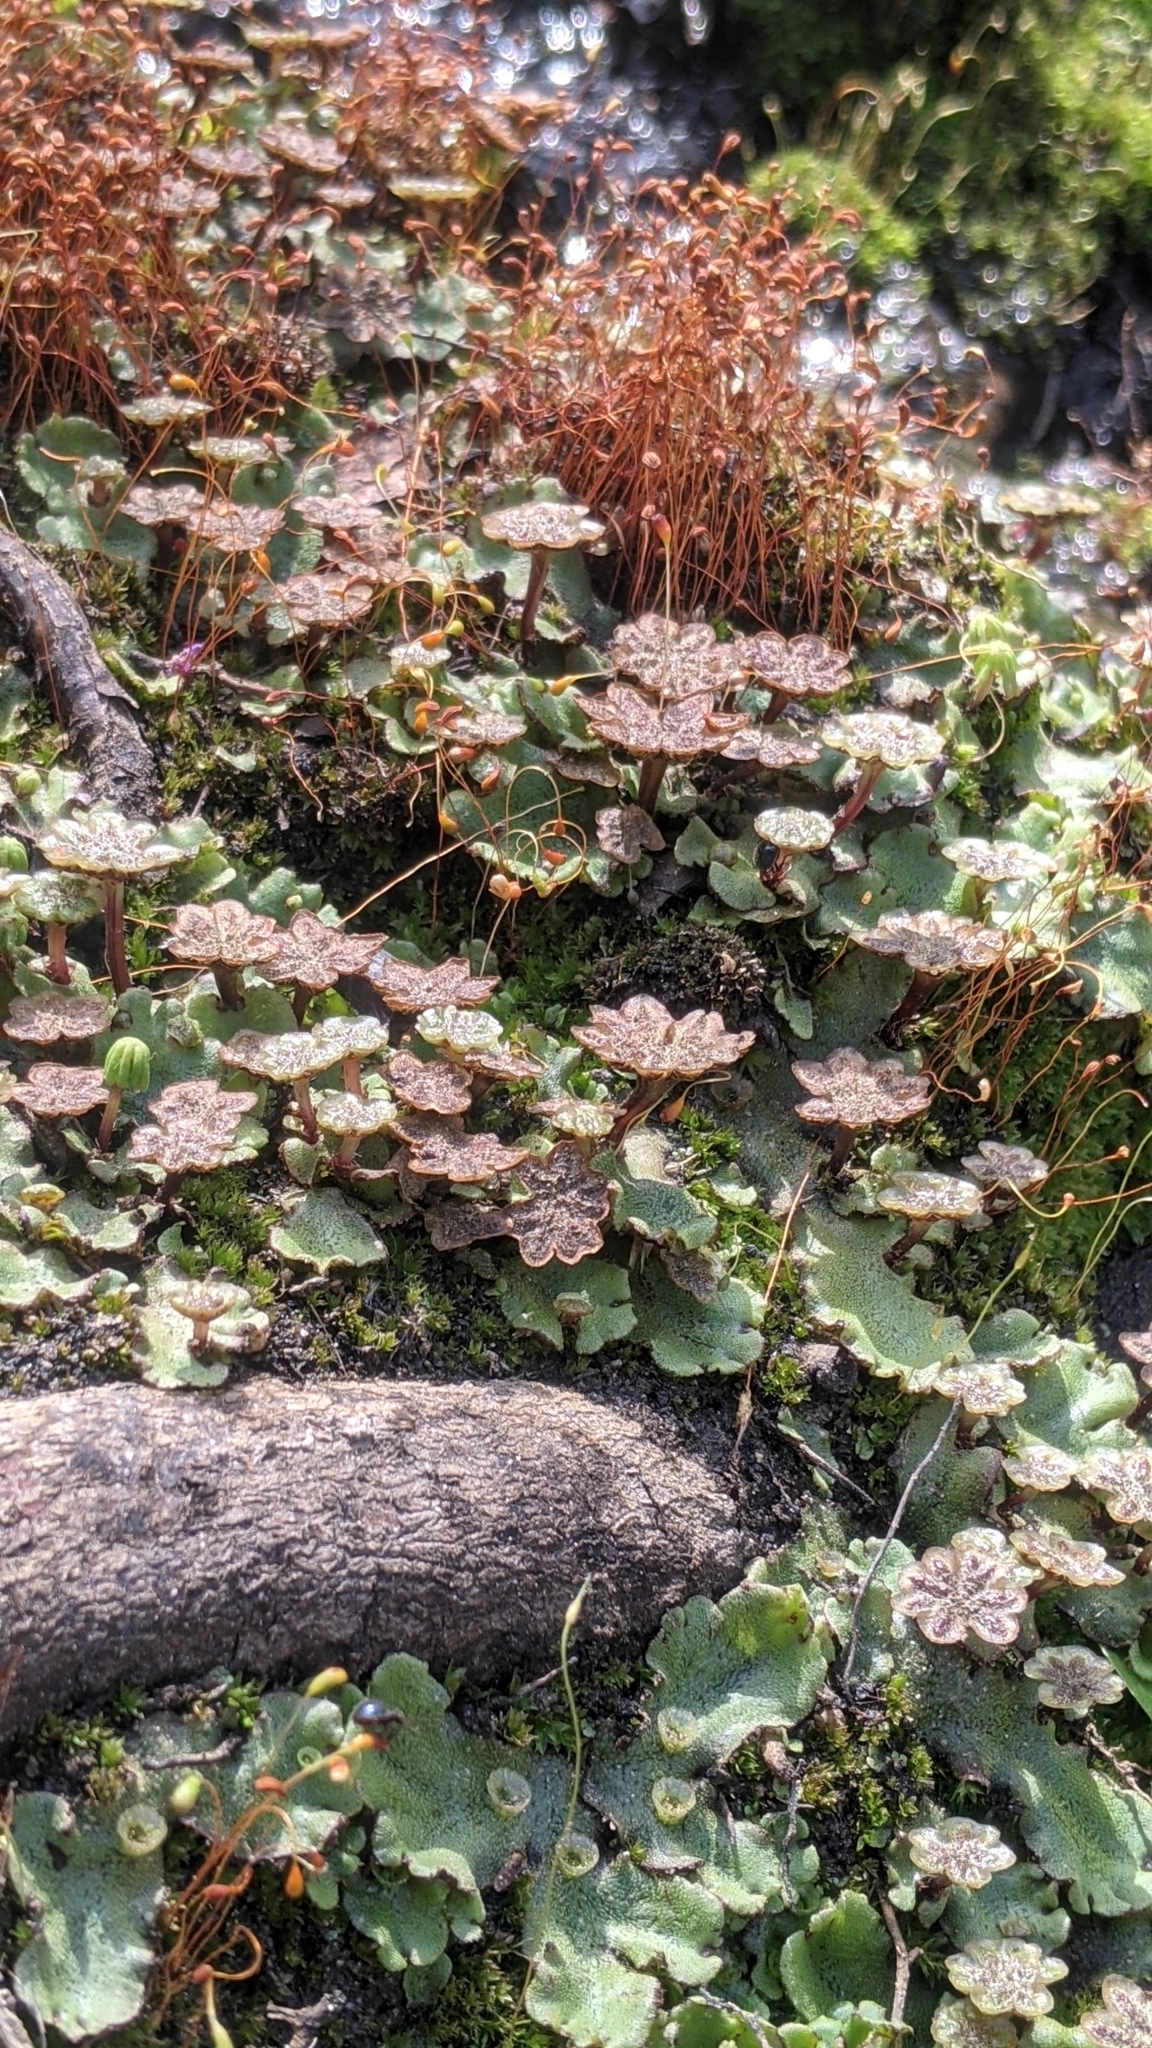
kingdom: Plantae
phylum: Marchantiophyta
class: Marchantiopsida
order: Marchantiales
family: Marchantiaceae
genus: Marchantia
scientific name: Marchantia polymorpha
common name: Common liverwort
